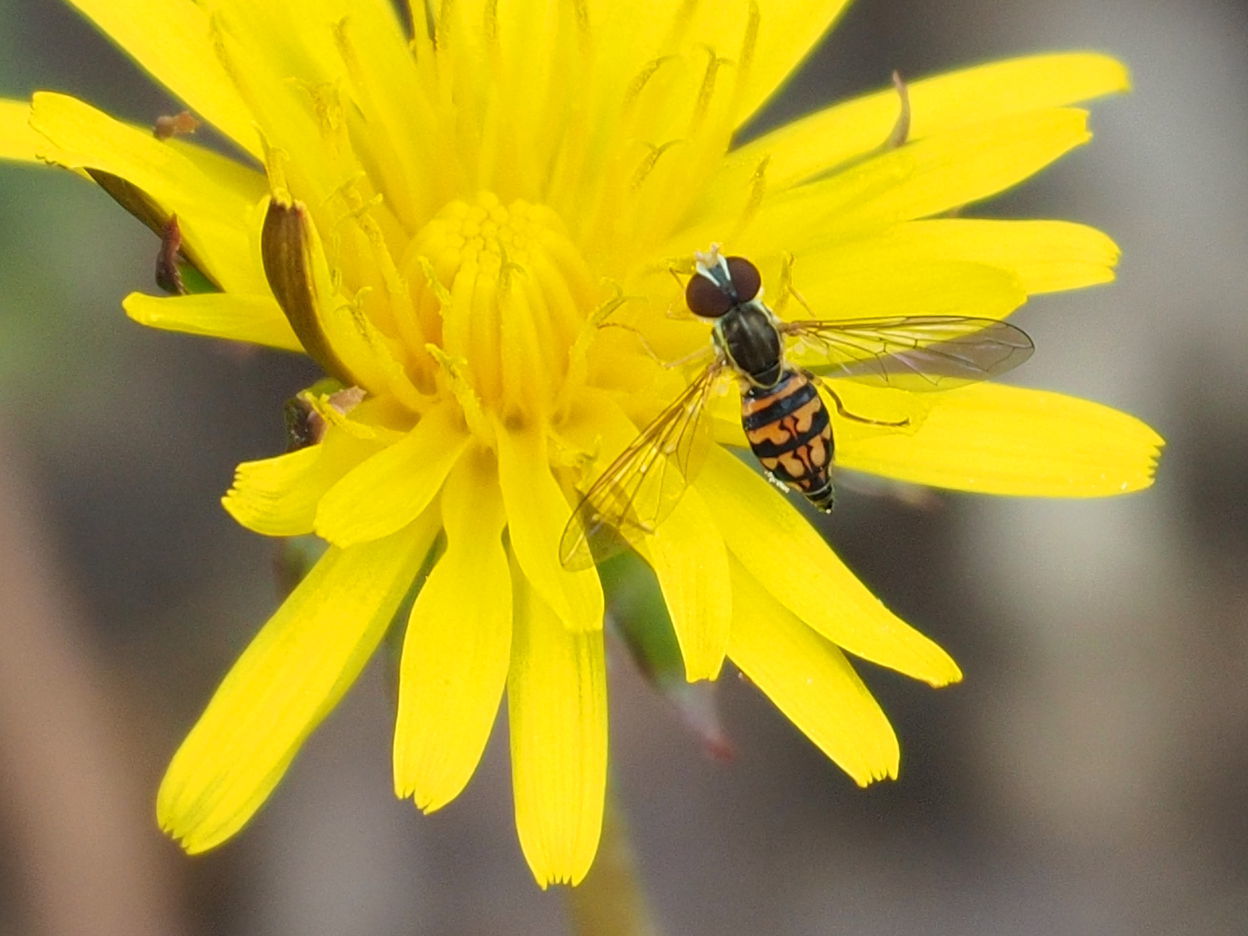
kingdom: Animalia
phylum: Arthropoda
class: Insecta
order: Diptera
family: Syrphidae
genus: Toxomerus
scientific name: Toxomerus geminatus
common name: Eastern calligrapher
